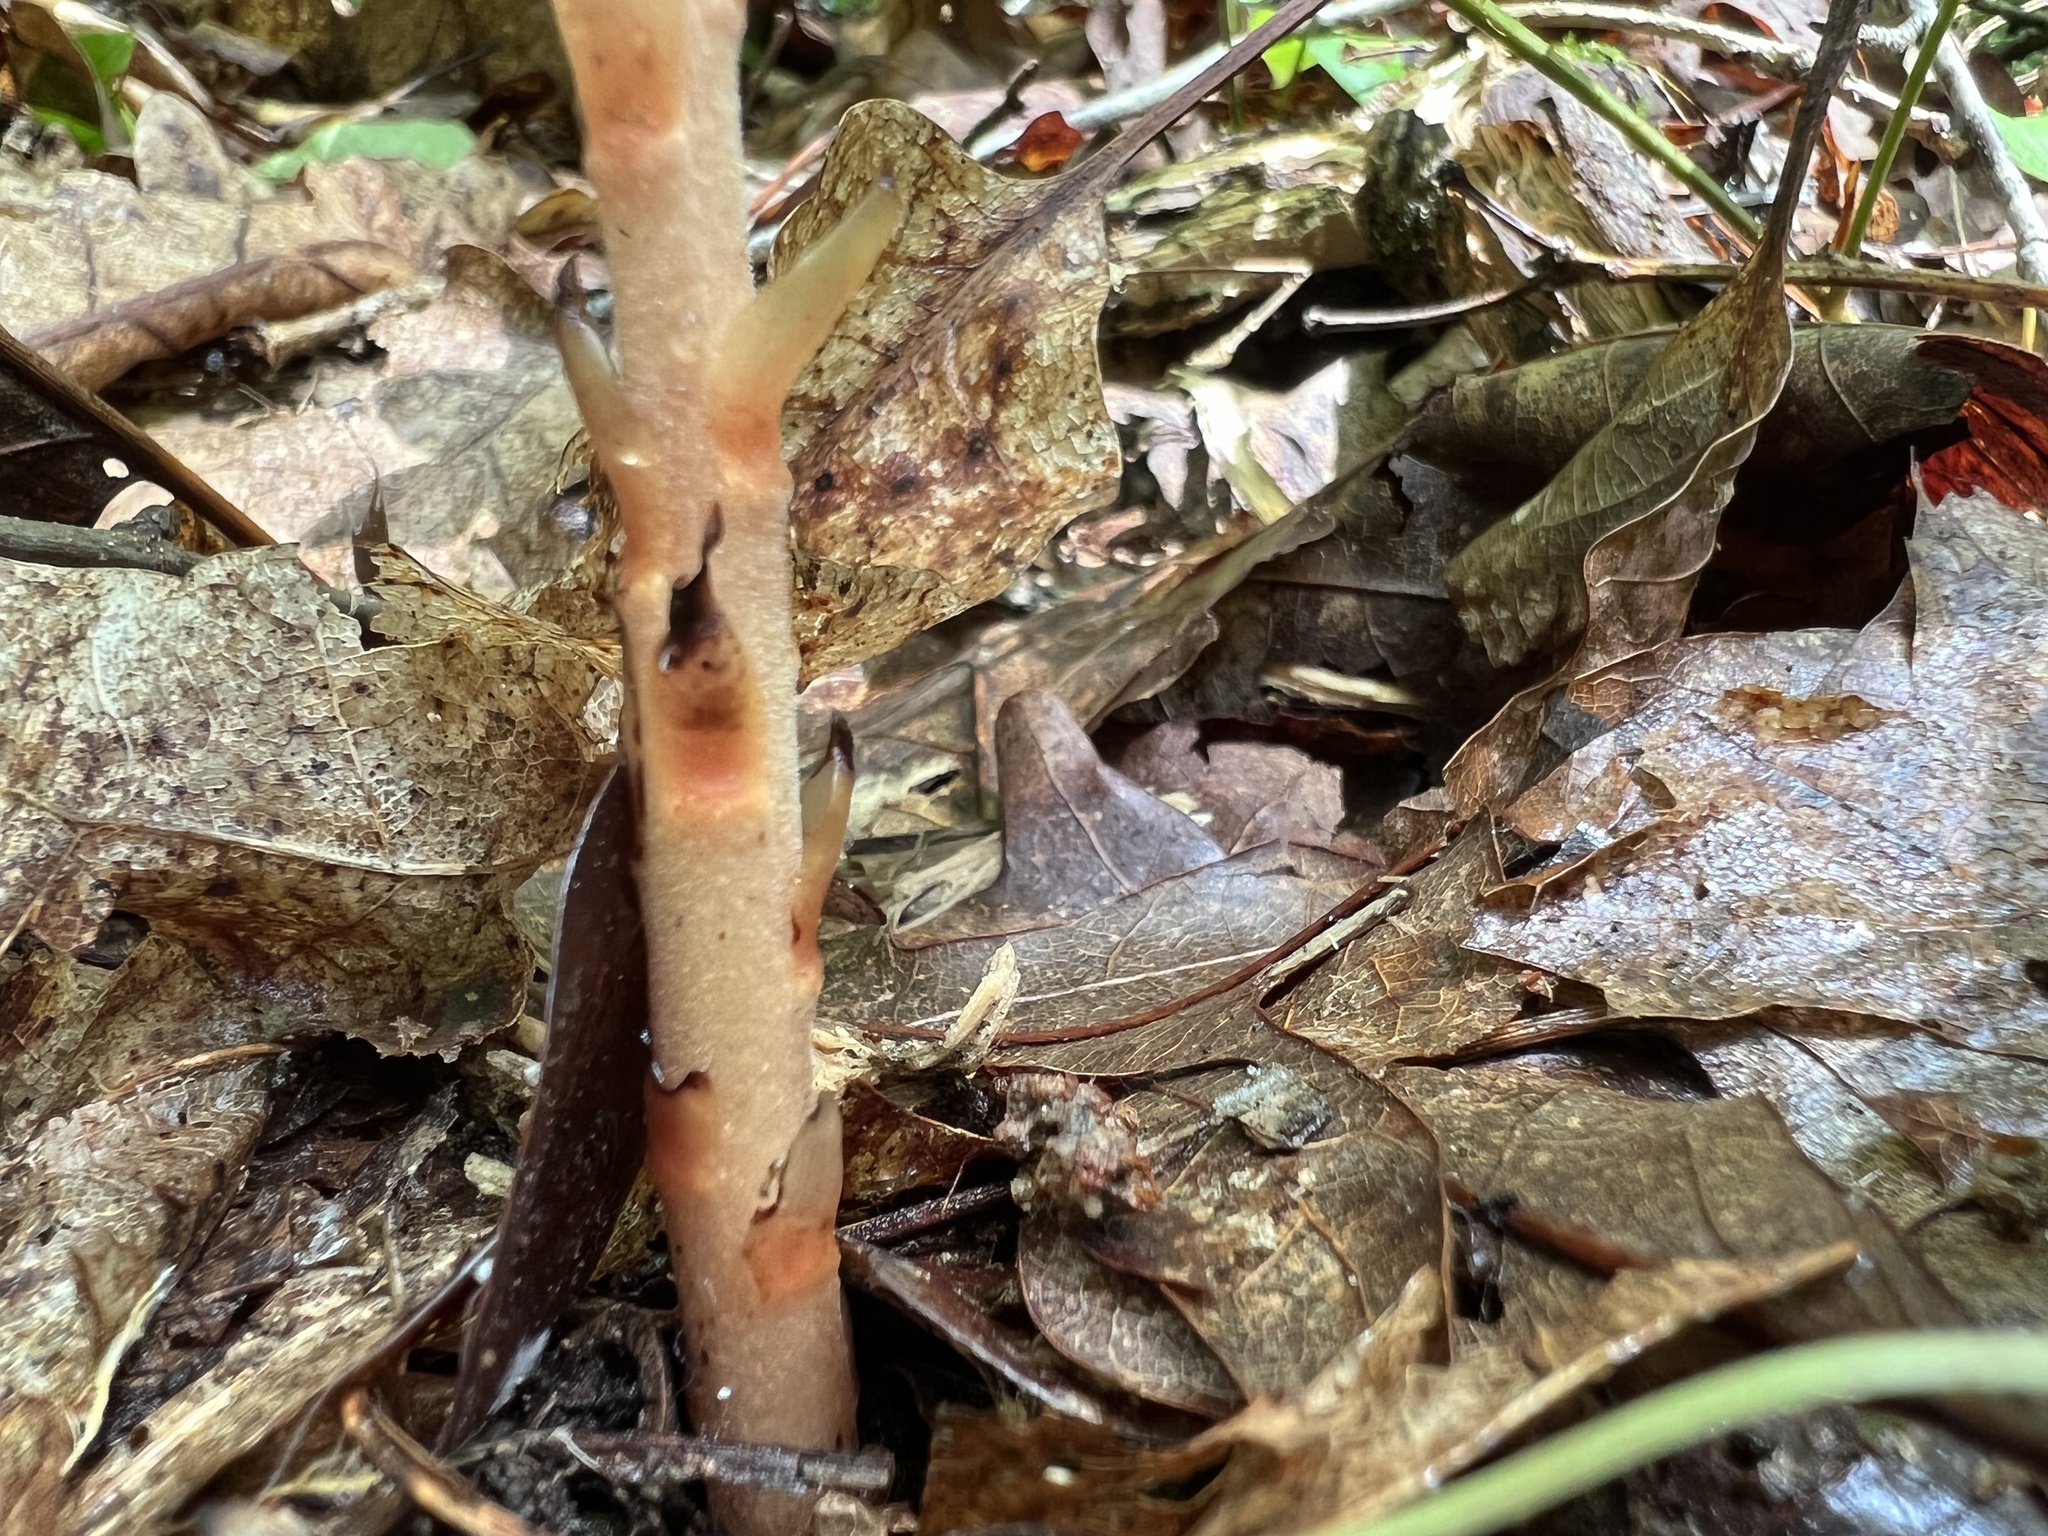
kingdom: Plantae
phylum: Tracheophyta
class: Magnoliopsida
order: Ericales
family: Ericaceae
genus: Hypopitys
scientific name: Hypopitys monotropa
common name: Yellow bird's-nest
